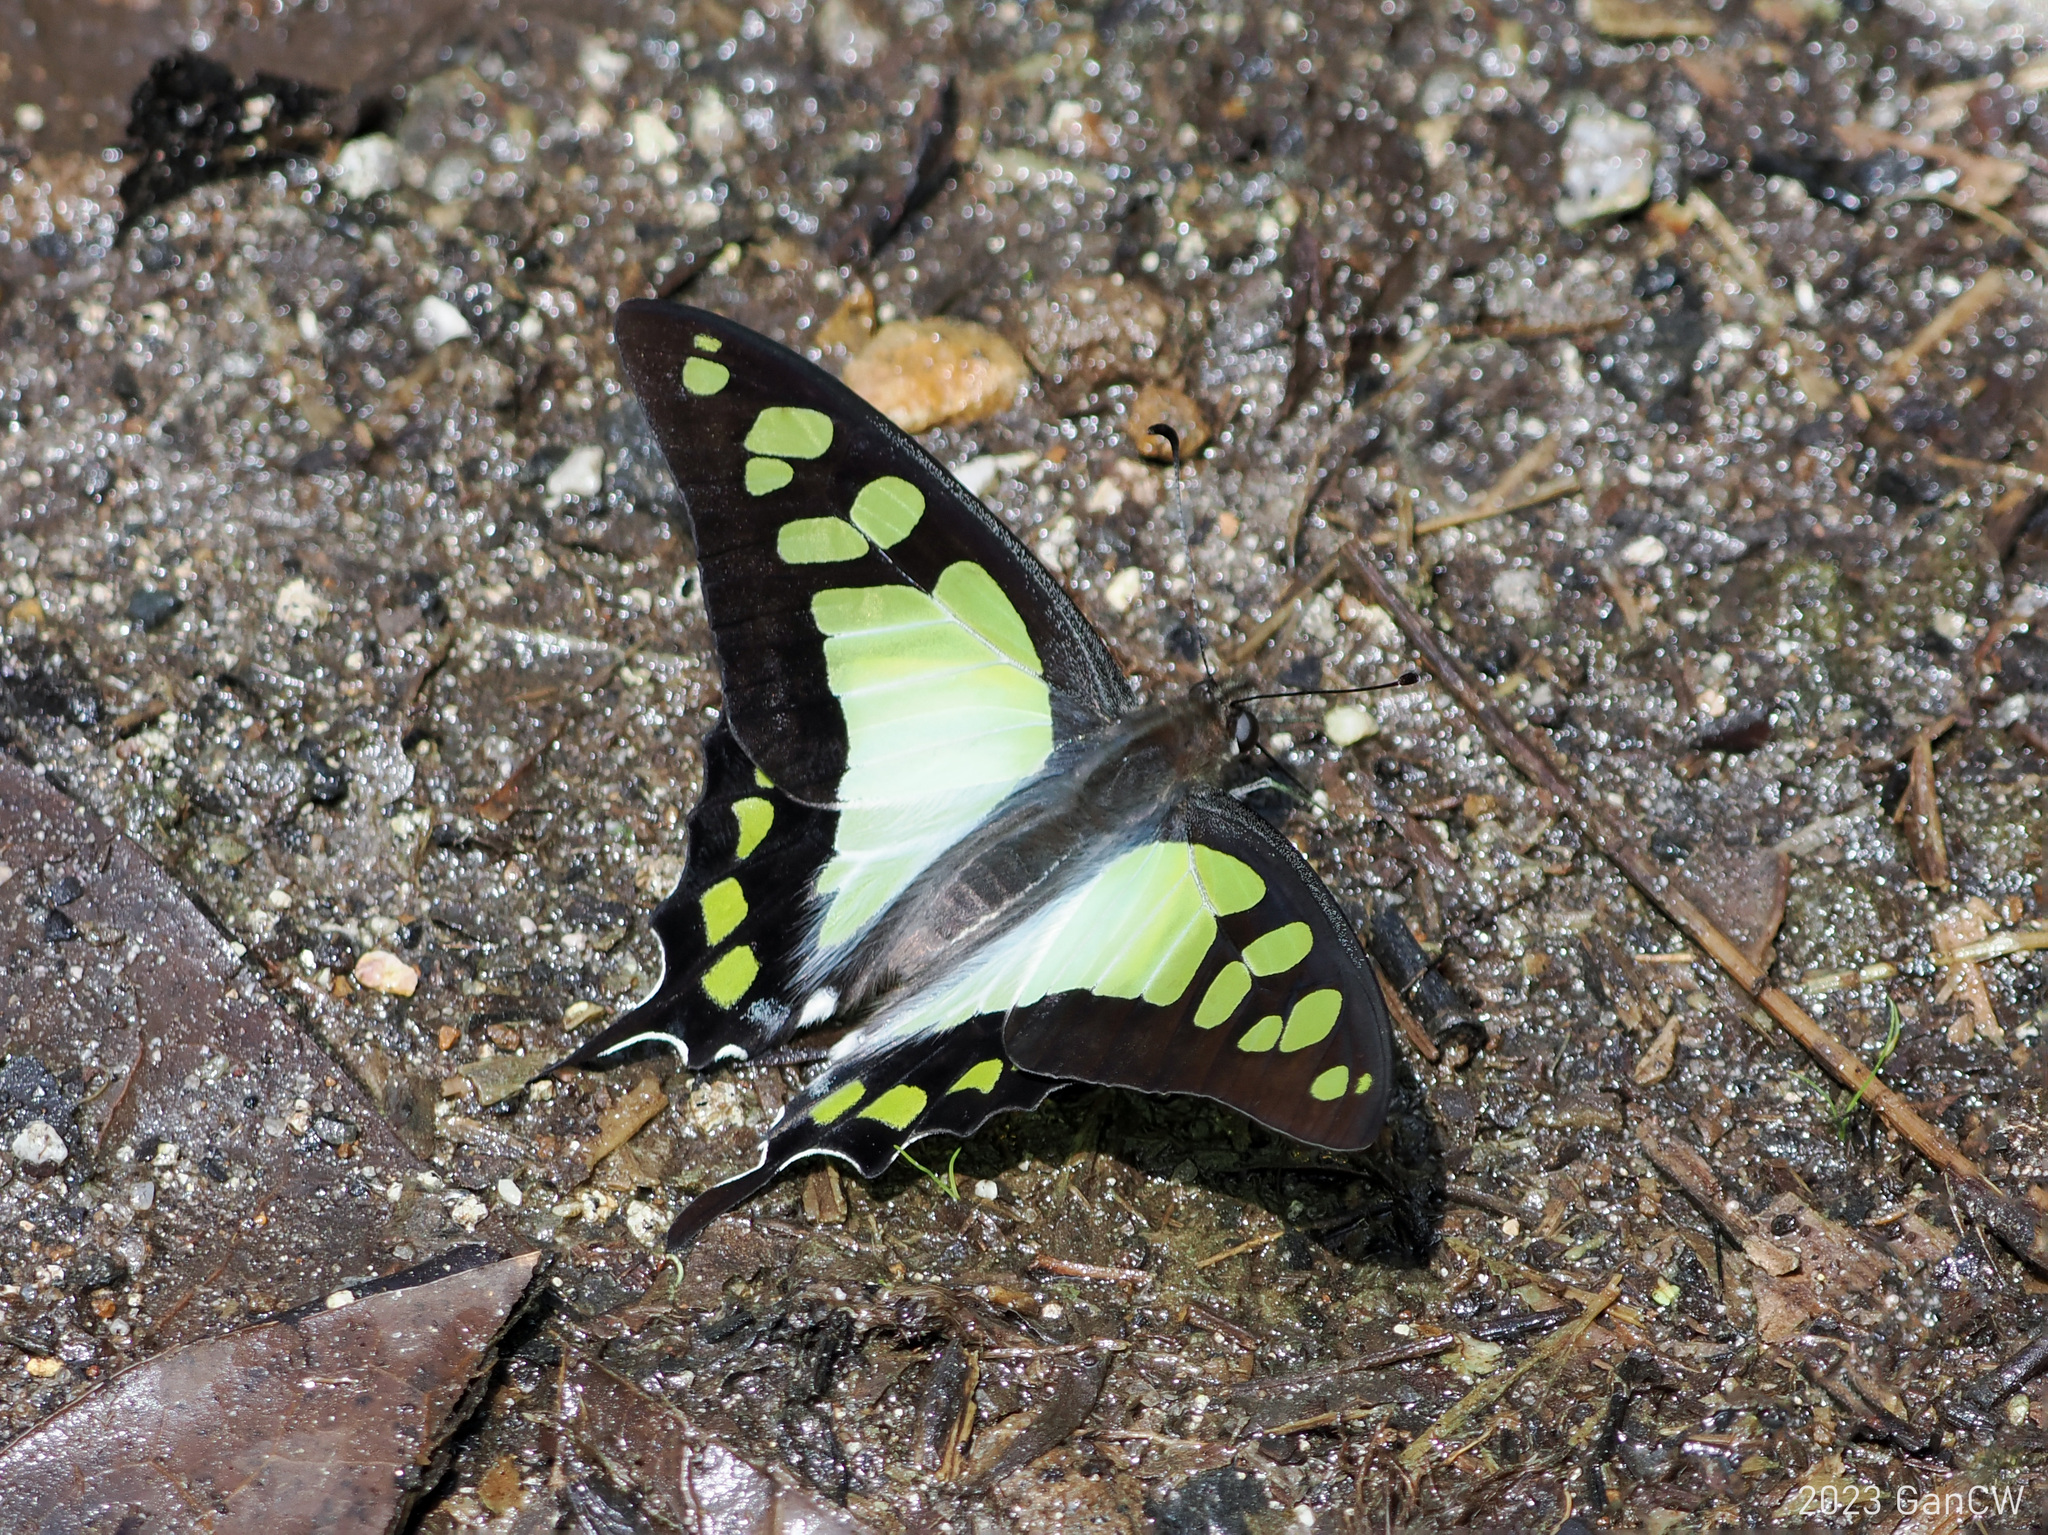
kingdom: Animalia
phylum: Arthropoda
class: Insecta
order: Lepidoptera
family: Papilionidae
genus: Graphium
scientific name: Graphium cloanthus
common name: Glassy bluebottle
